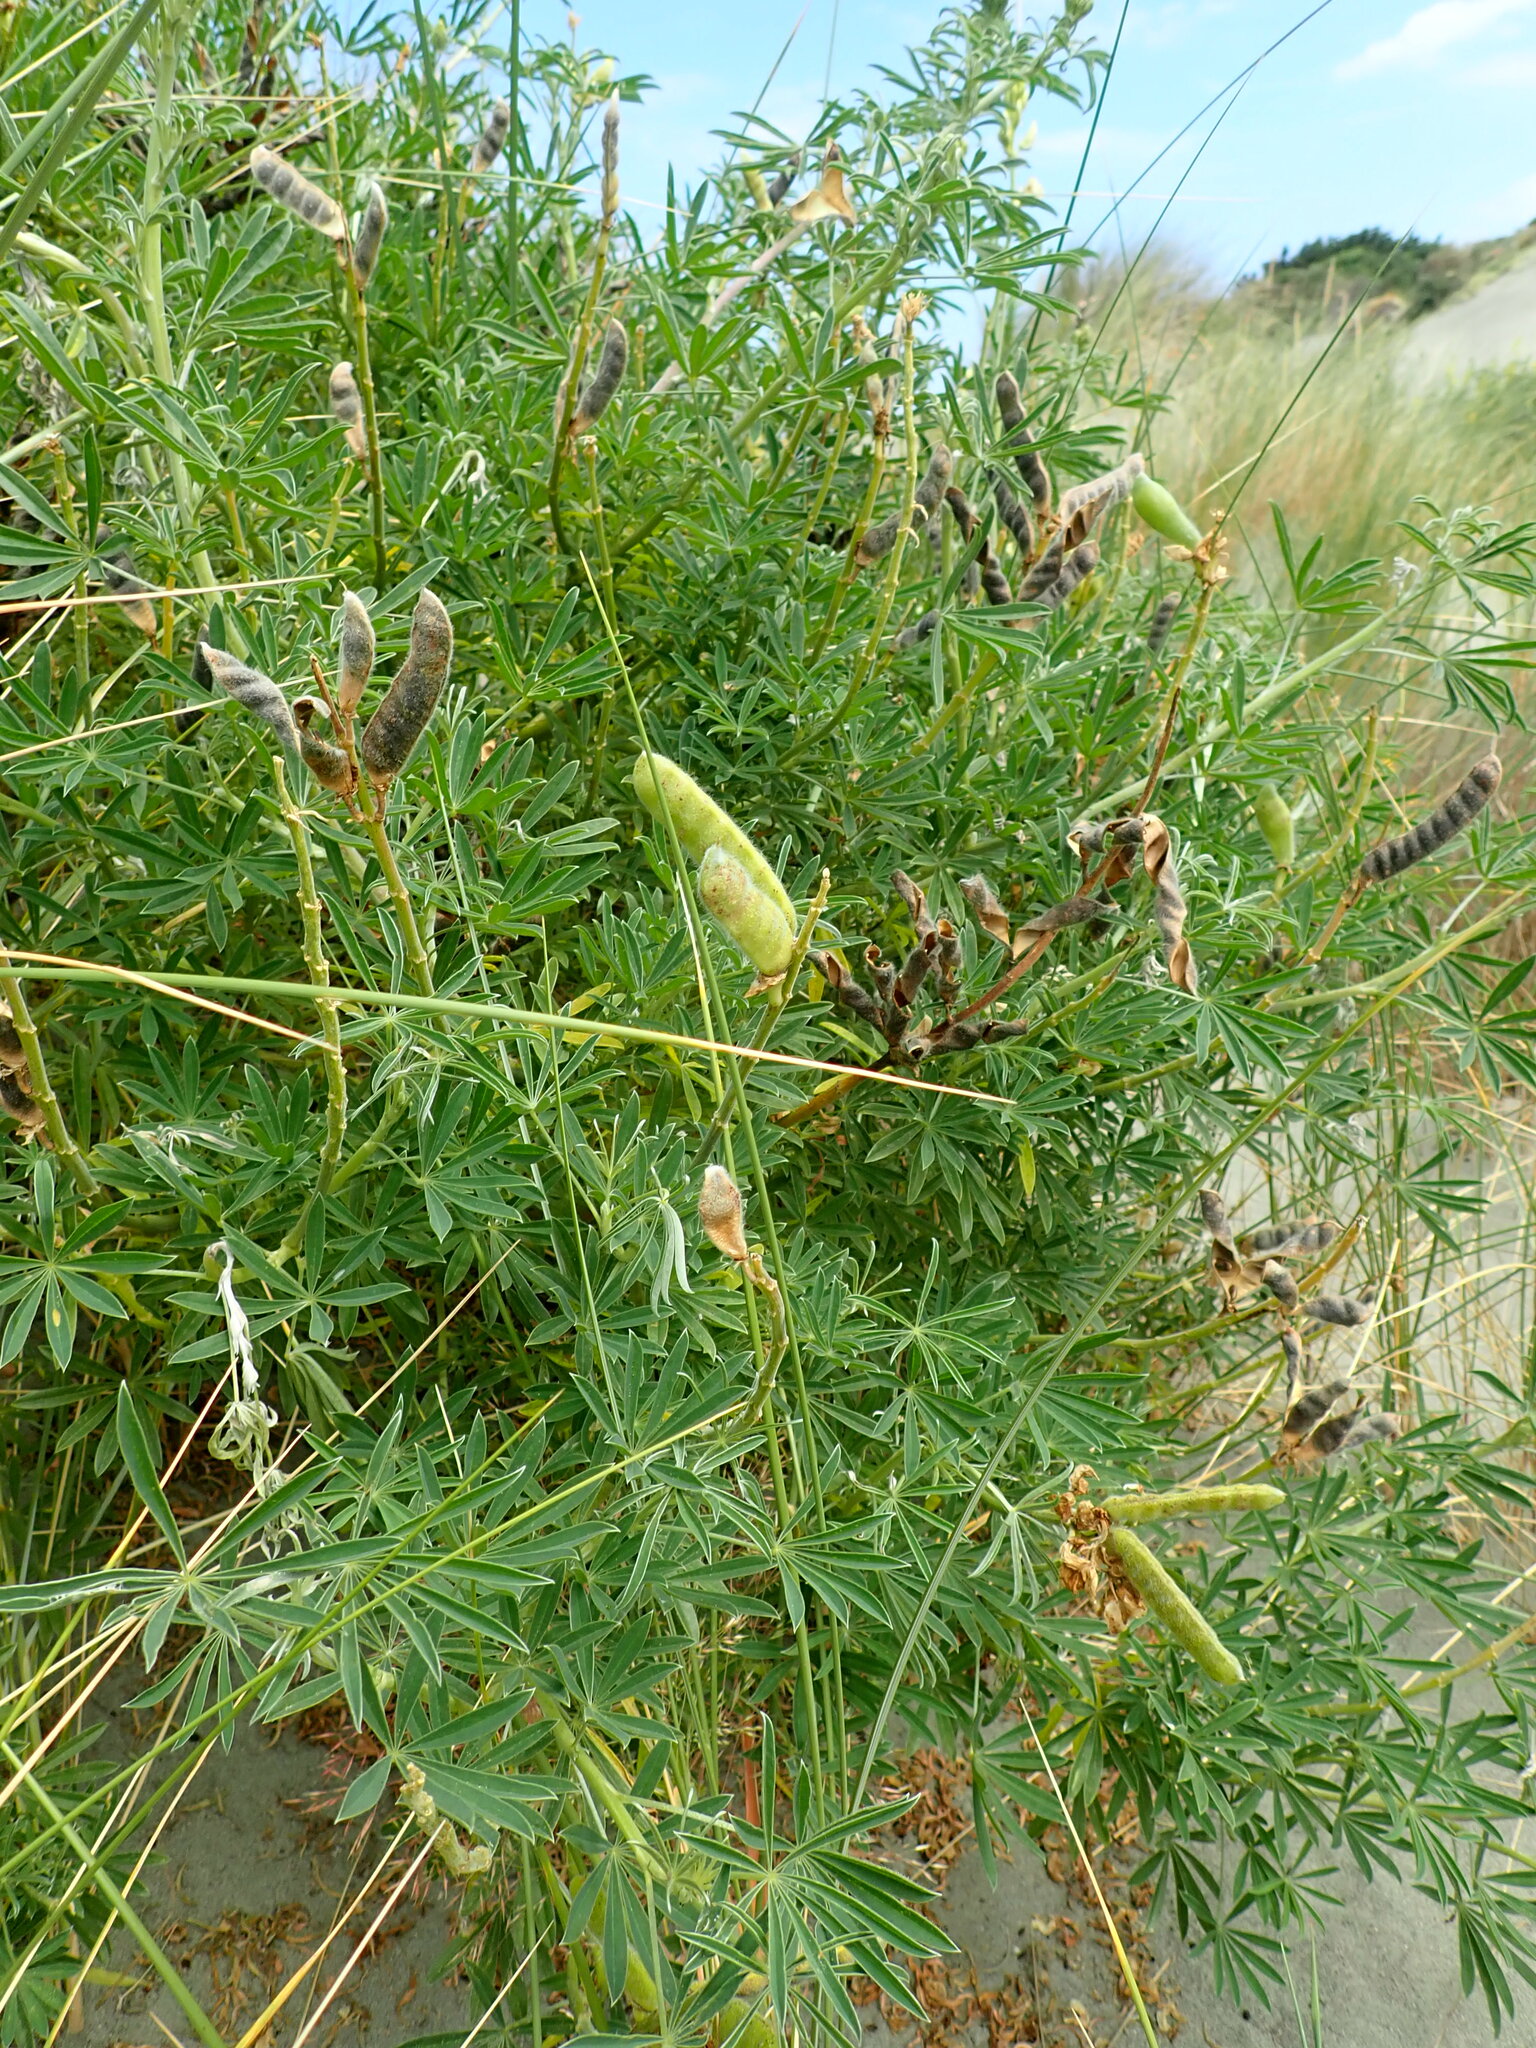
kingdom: Plantae
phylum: Tracheophyta
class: Magnoliopsida
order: Fabales
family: Fabaceae
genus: Lupinus
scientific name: Lupinus arboreus
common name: Yellow bush lupine
